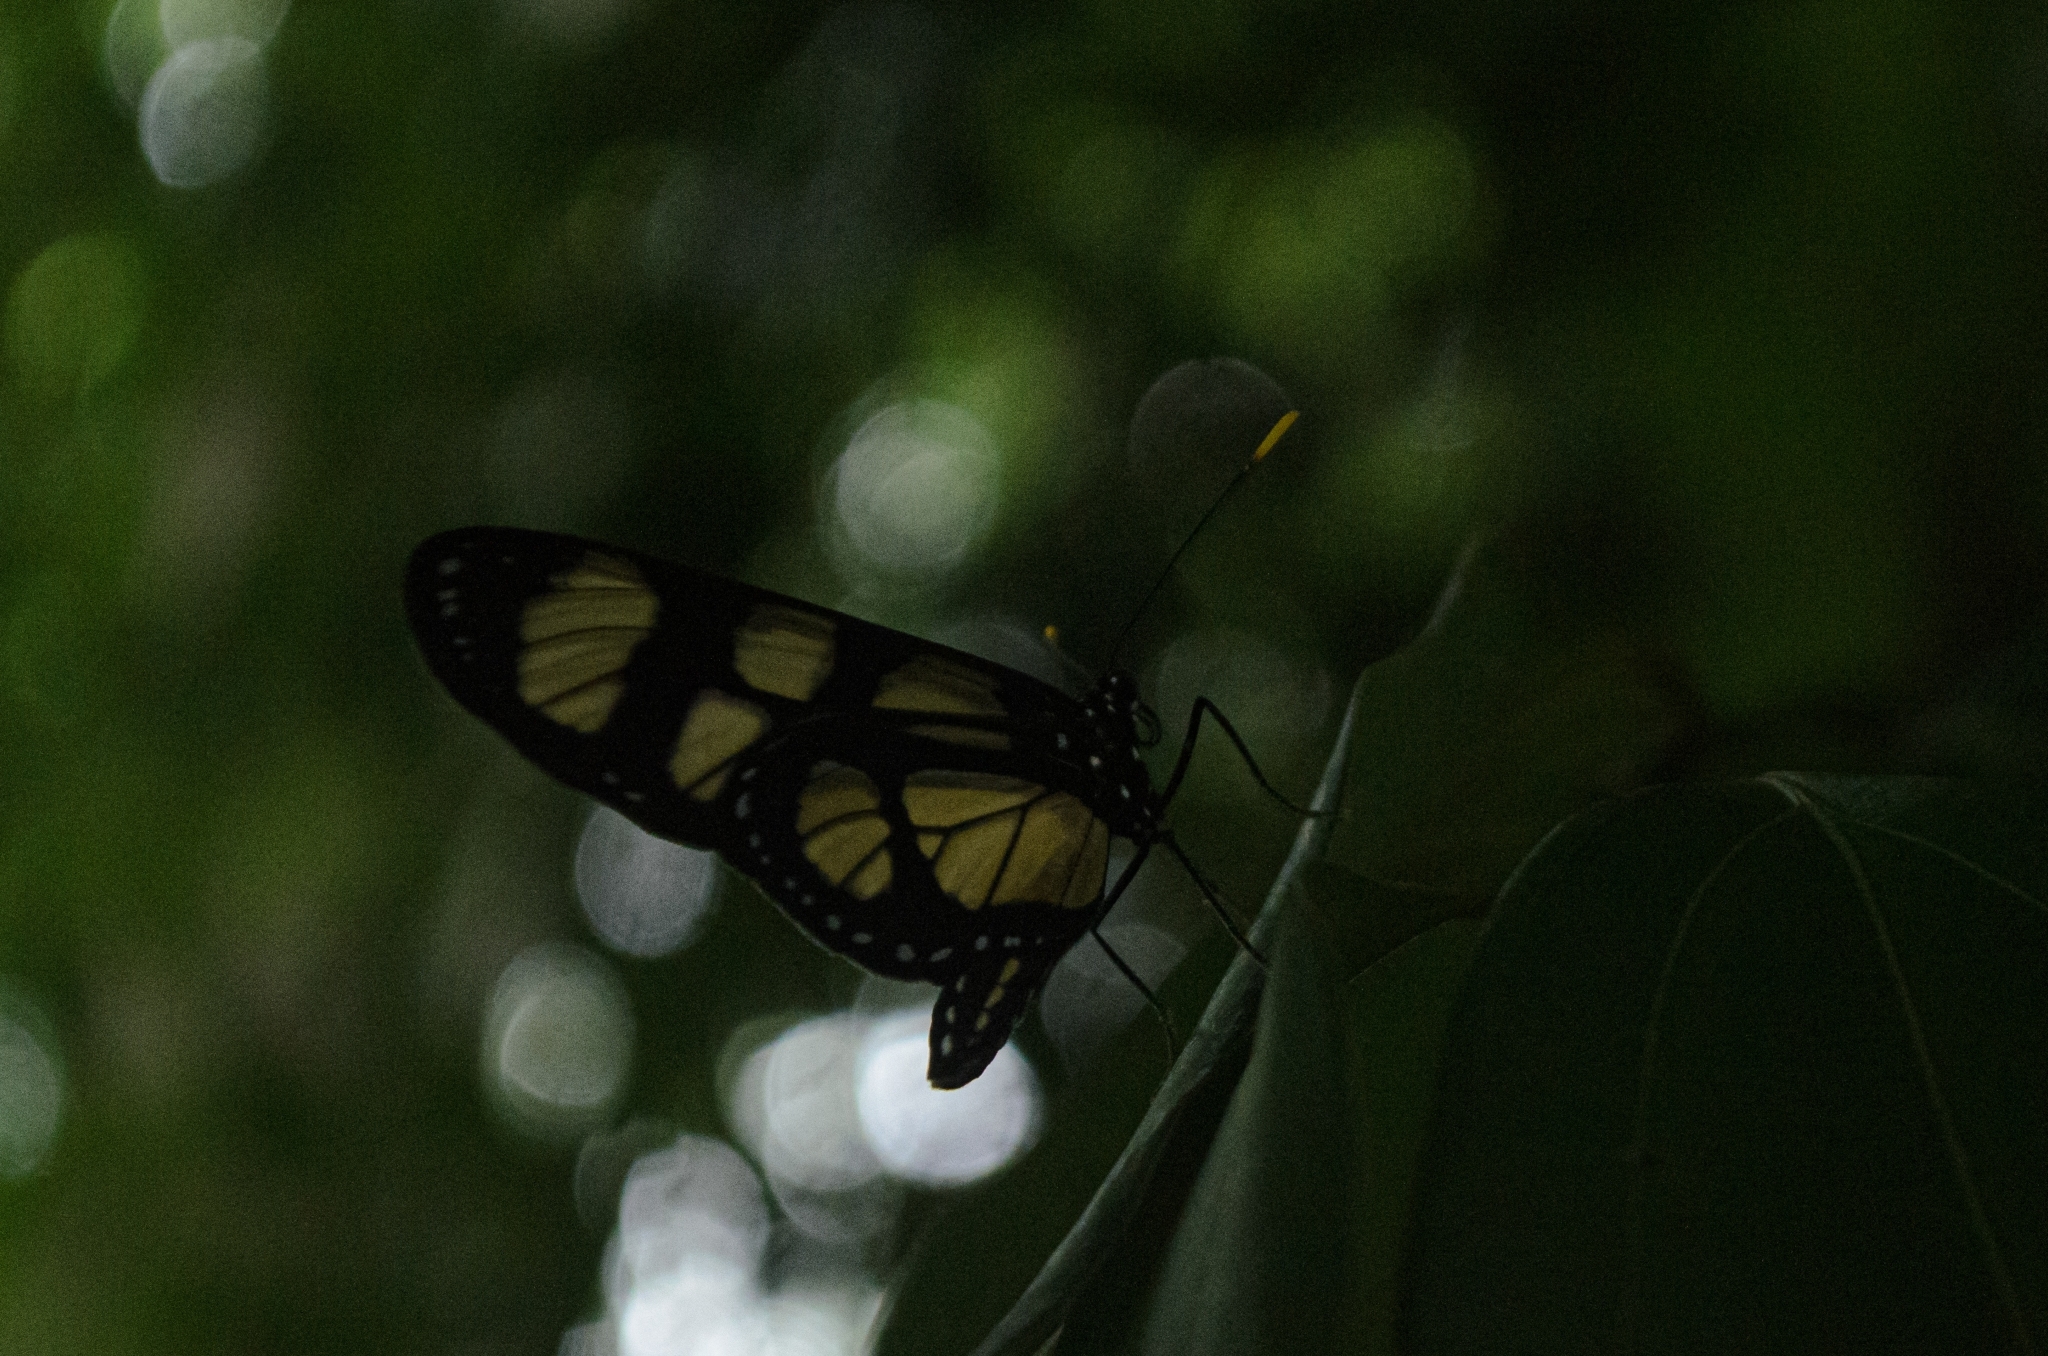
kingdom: Animalia
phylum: Arthropoda
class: Insecta
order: Lepidoptera
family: Nymphalidae
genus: Thyridia
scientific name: Thyridia psidii
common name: Melantho tigerwing
